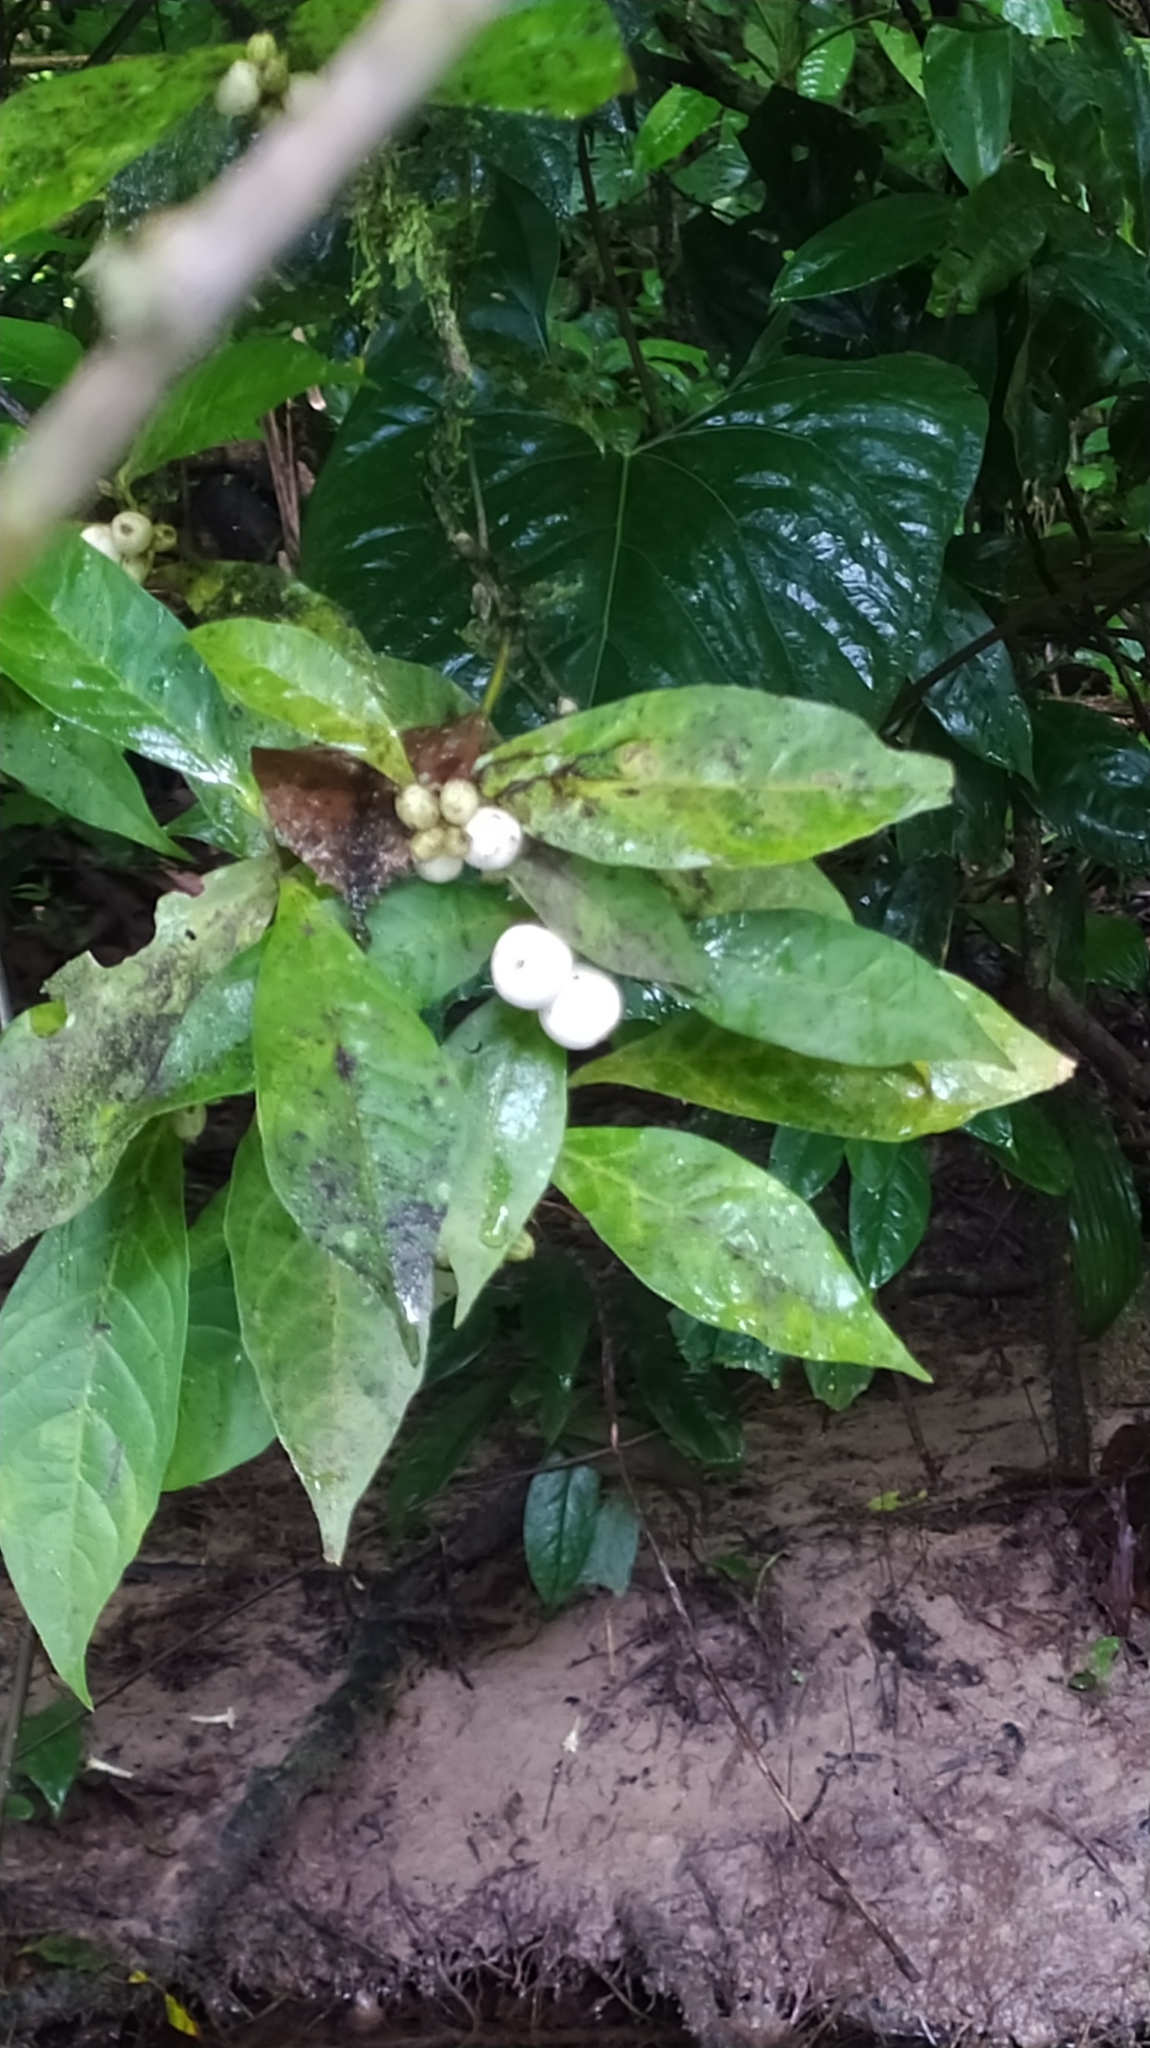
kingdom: Plantae
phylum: Tracheophyta
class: Magnoliopsida
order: Gentianales
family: Rubiaceae
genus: Rudgea
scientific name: Rudgea guianensis
